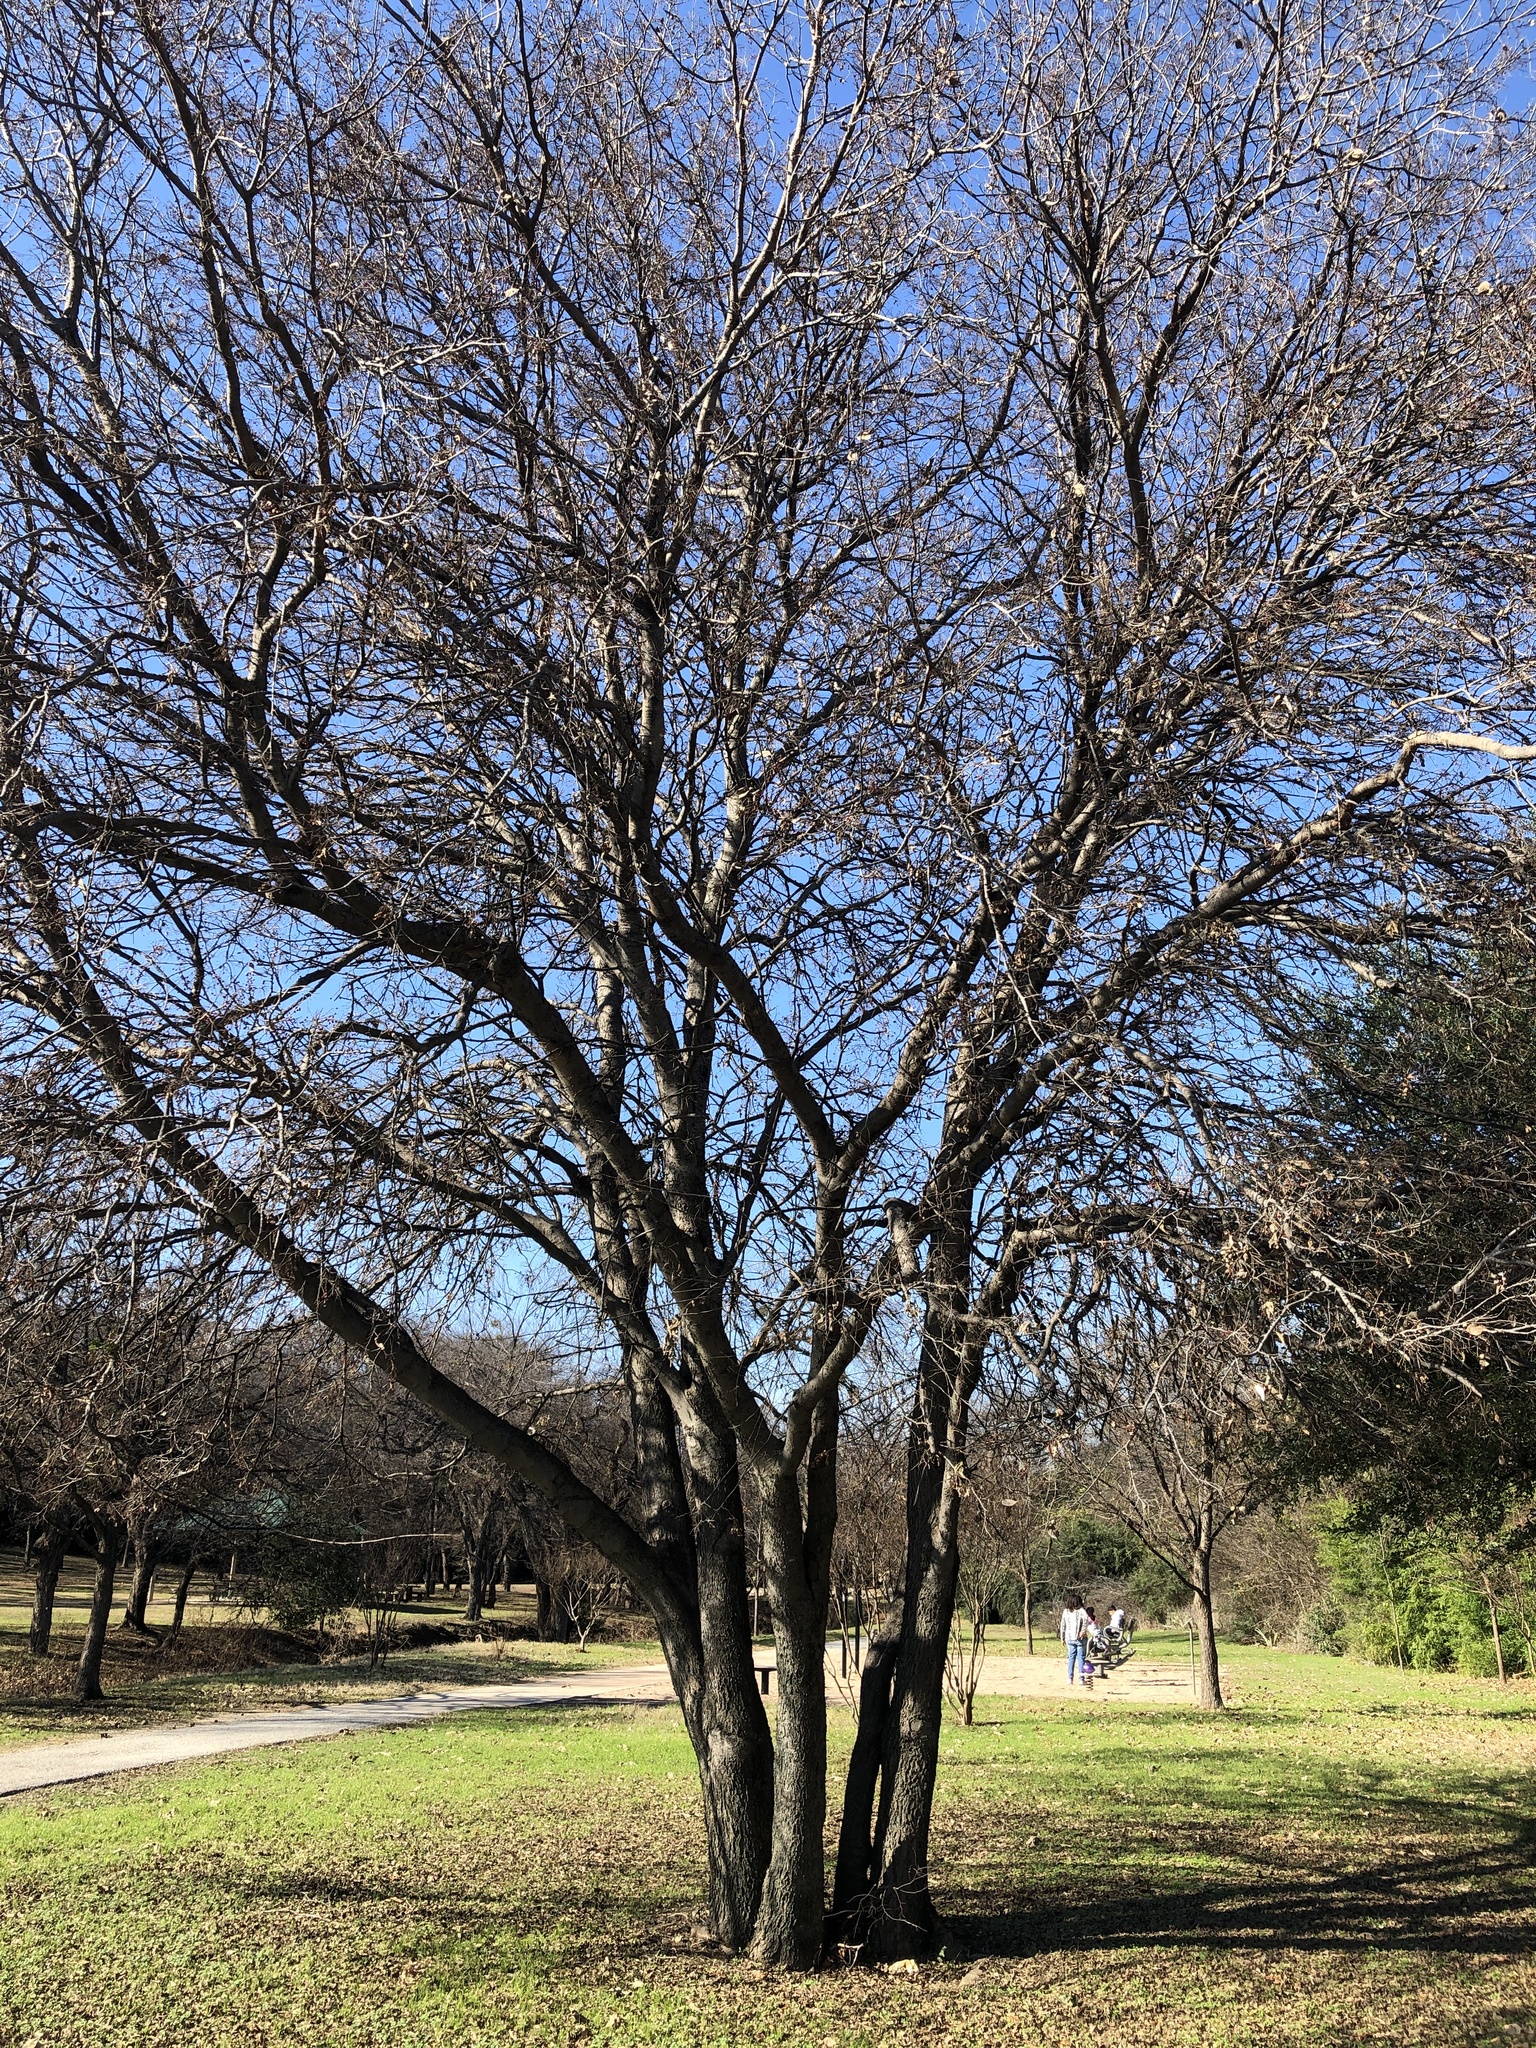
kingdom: Plantae
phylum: Tracheophyta
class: Magnoliopsida
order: Rosales
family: Cannabaceae
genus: Celtis
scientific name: Celtis laevigata
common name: Sugarberry
